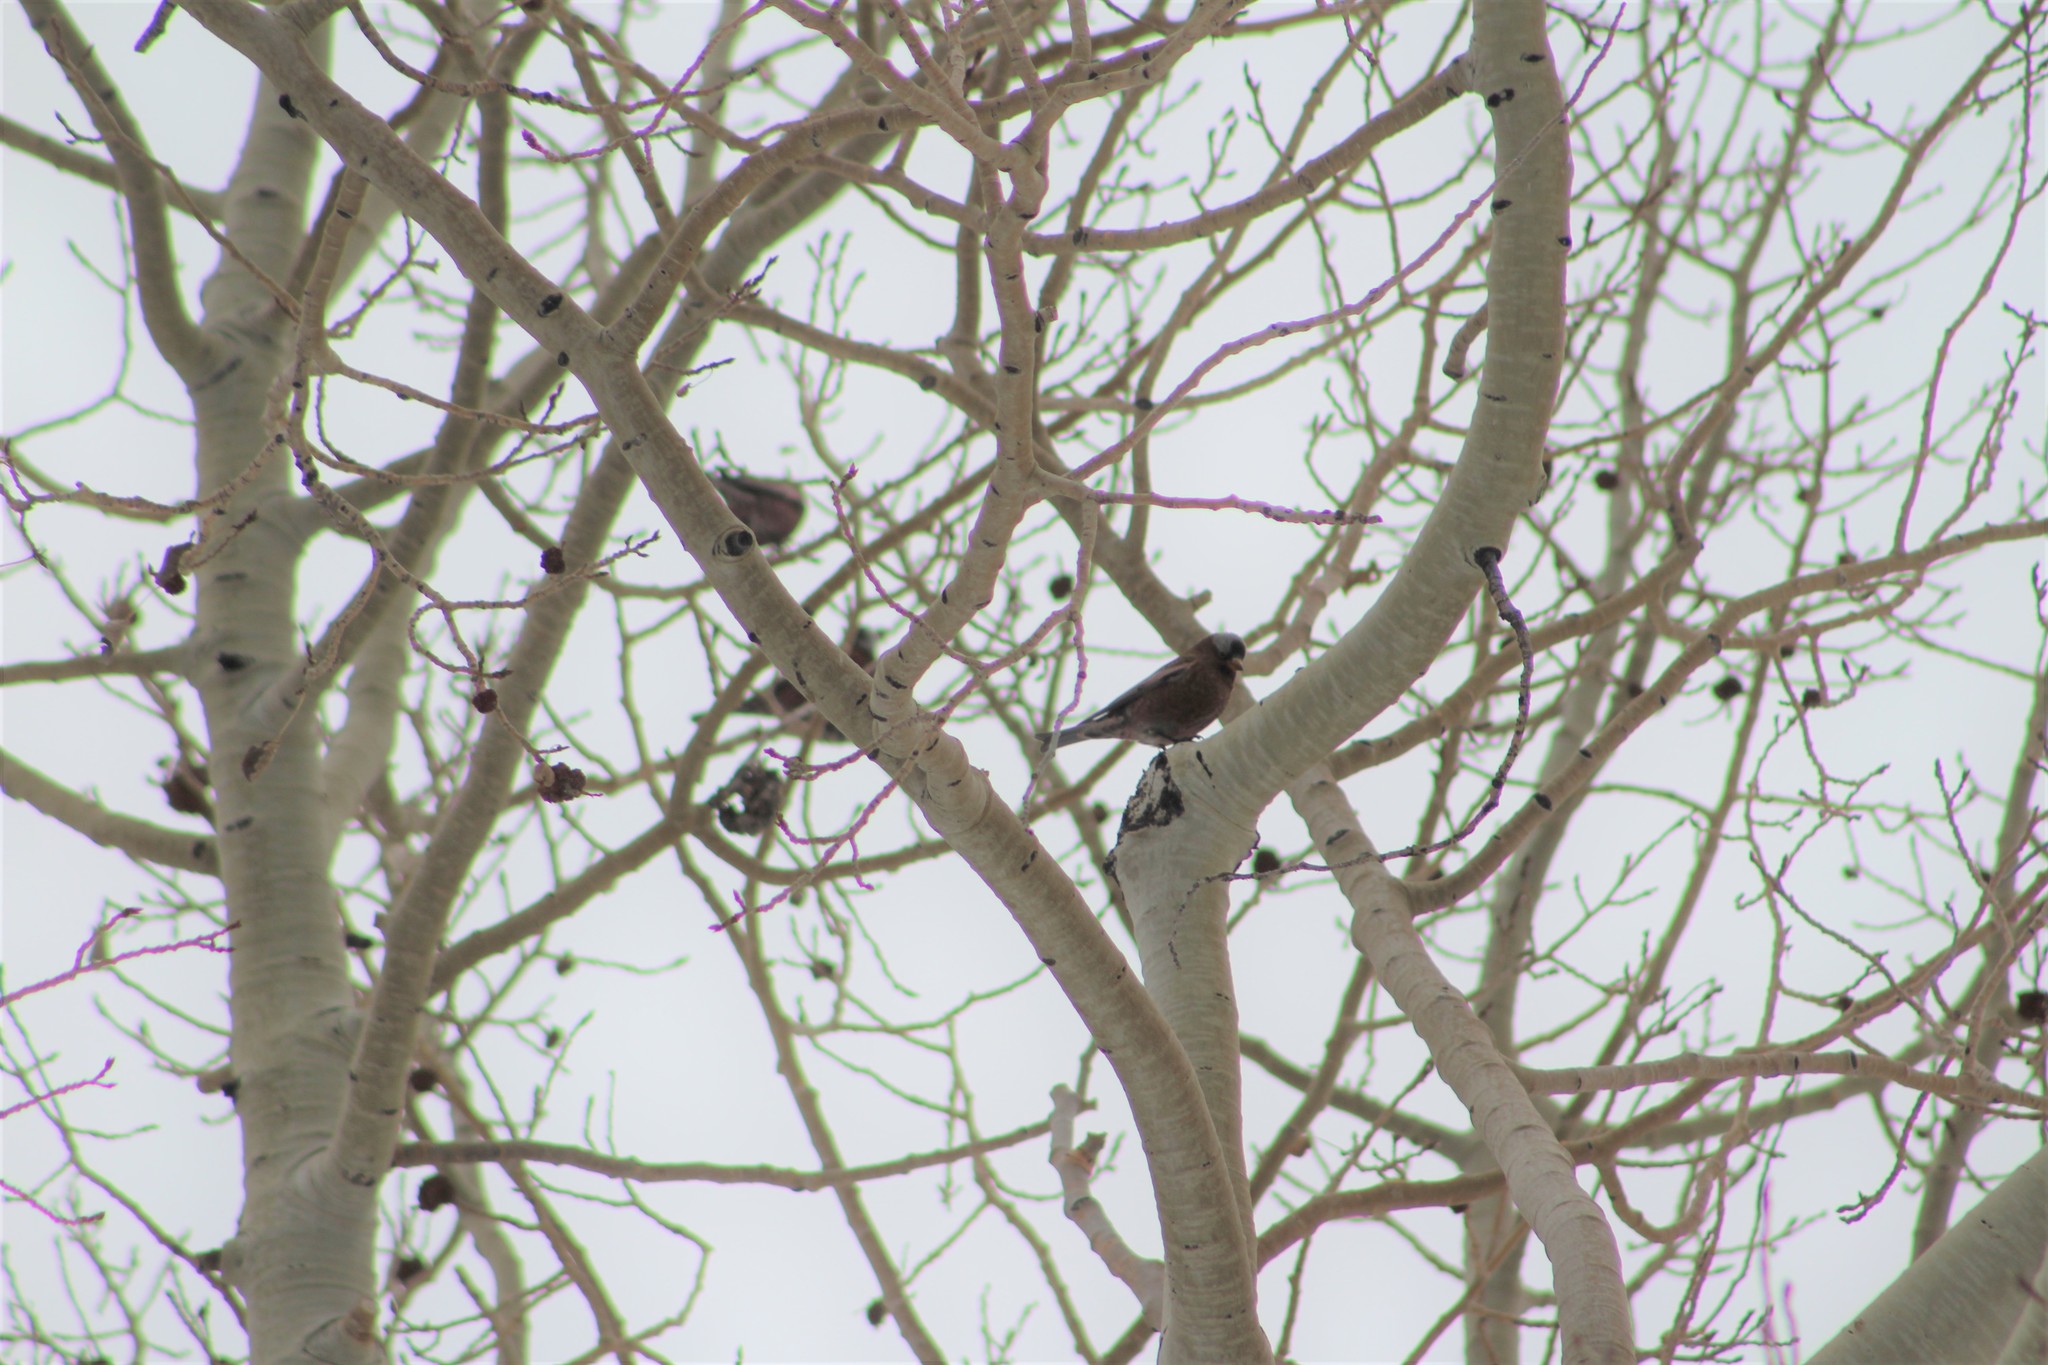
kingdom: Animalia
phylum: Chordata
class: Aves
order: Passeriformes
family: Fringillidae
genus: Leucosticte
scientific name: Leucosticte tephrocotis
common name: Gray-crowned rosy-finch
